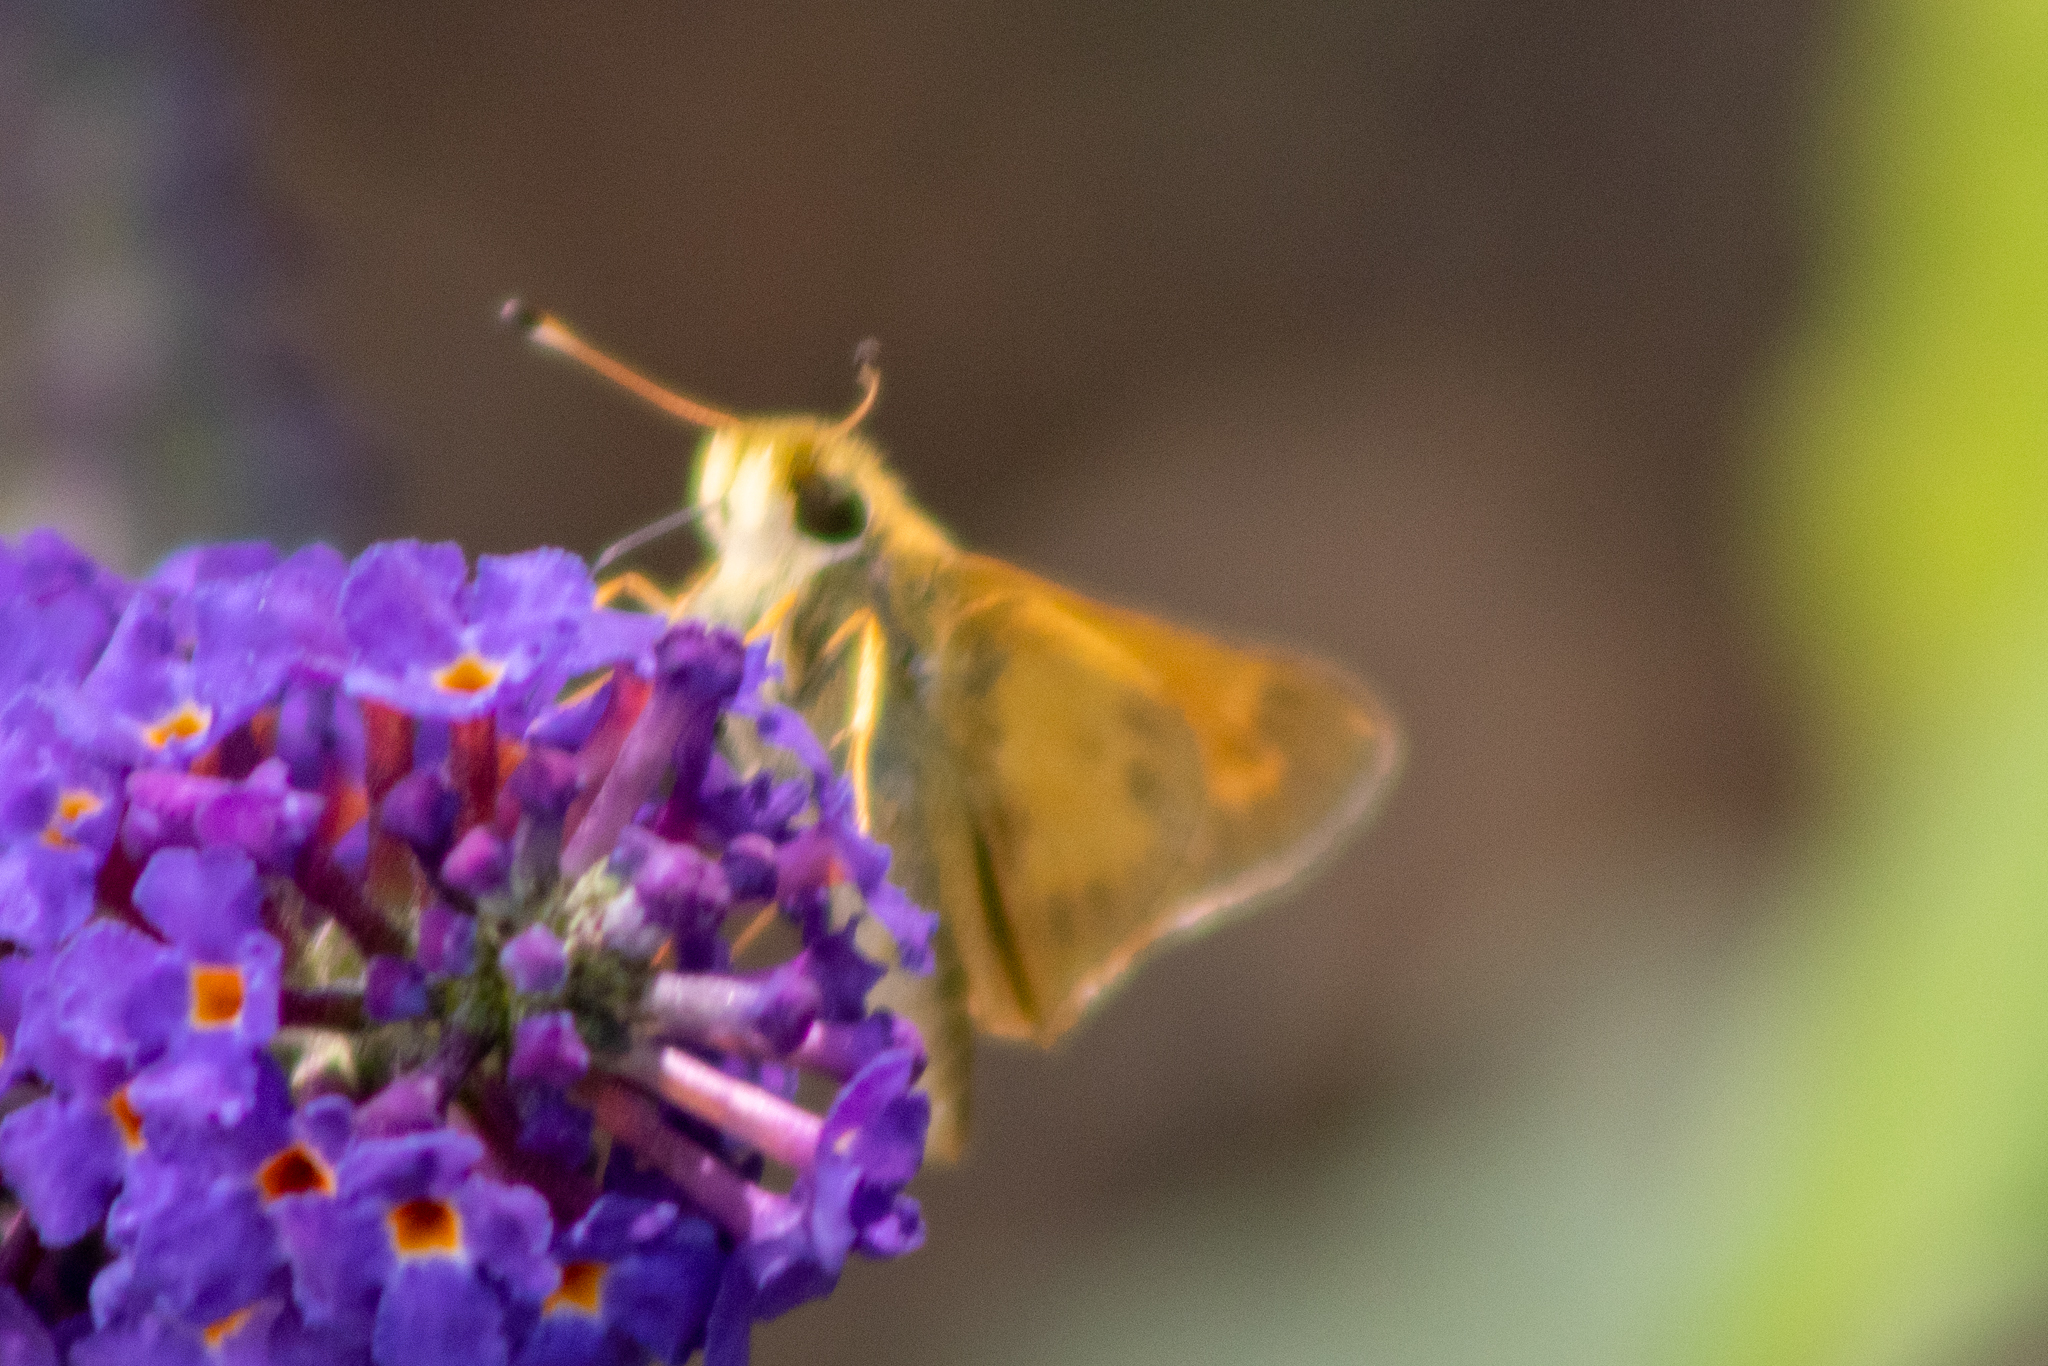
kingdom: Animalia
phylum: Arthropoda
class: Insecta
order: Lepidoptera
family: Hesperiidae
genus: Atalopedes
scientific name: Atalopedes
